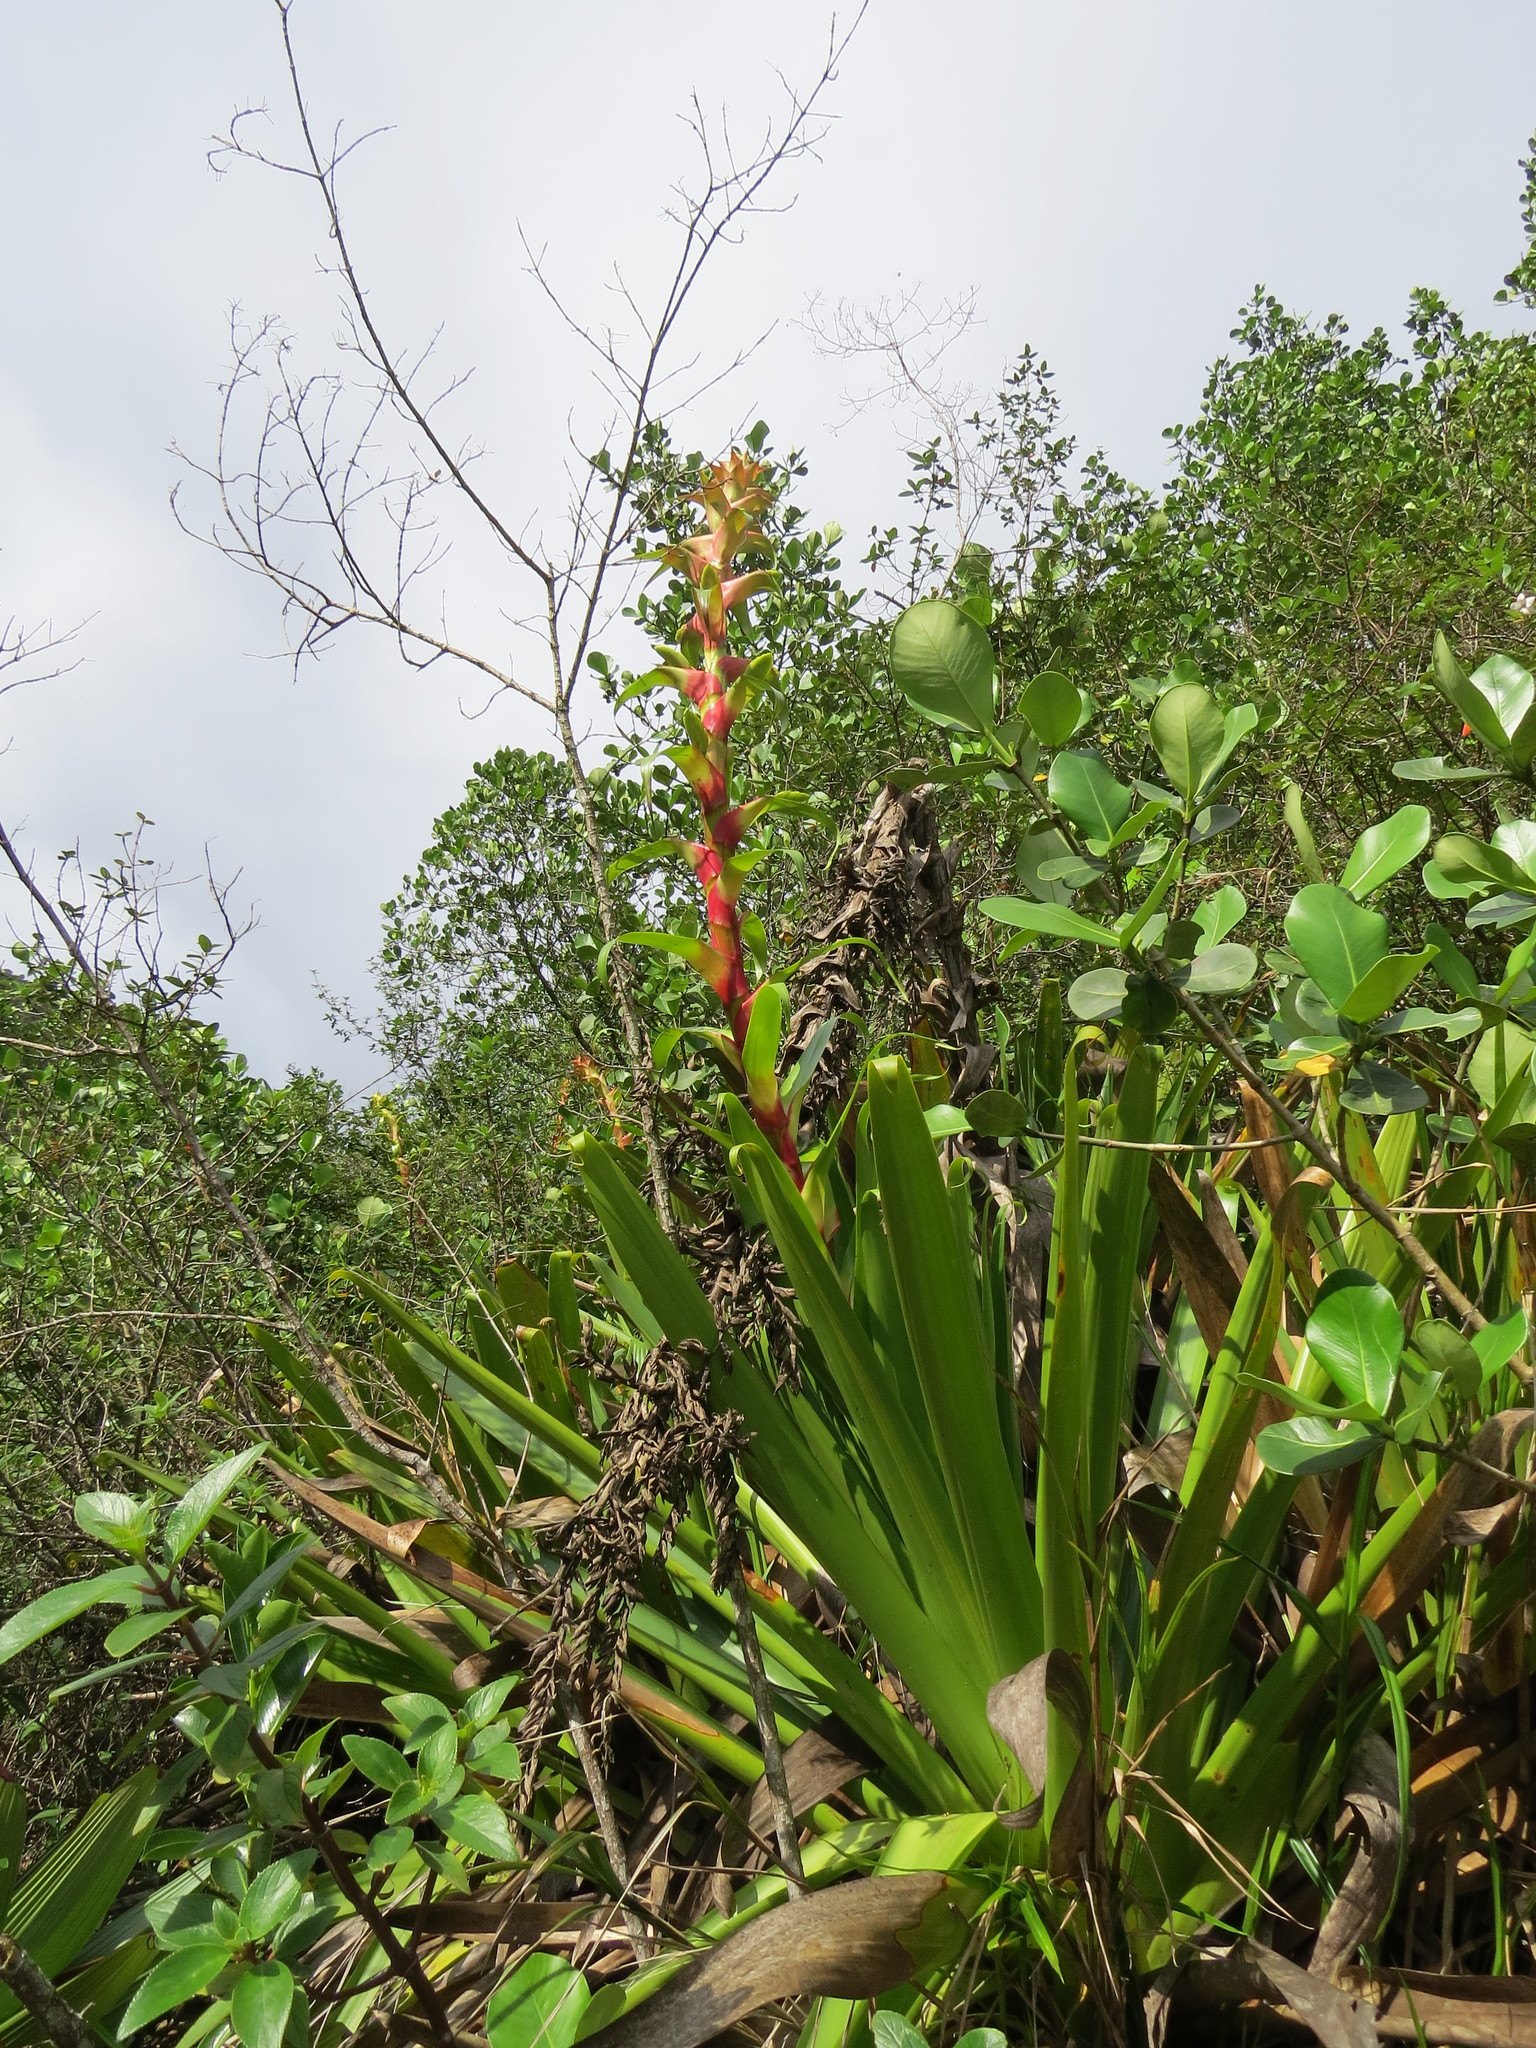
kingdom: Plantae
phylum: Tracheophyta
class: Liliopsida
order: Poales
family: Bromeliaceae
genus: Alcantarea
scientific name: Alcantarea geniculata
